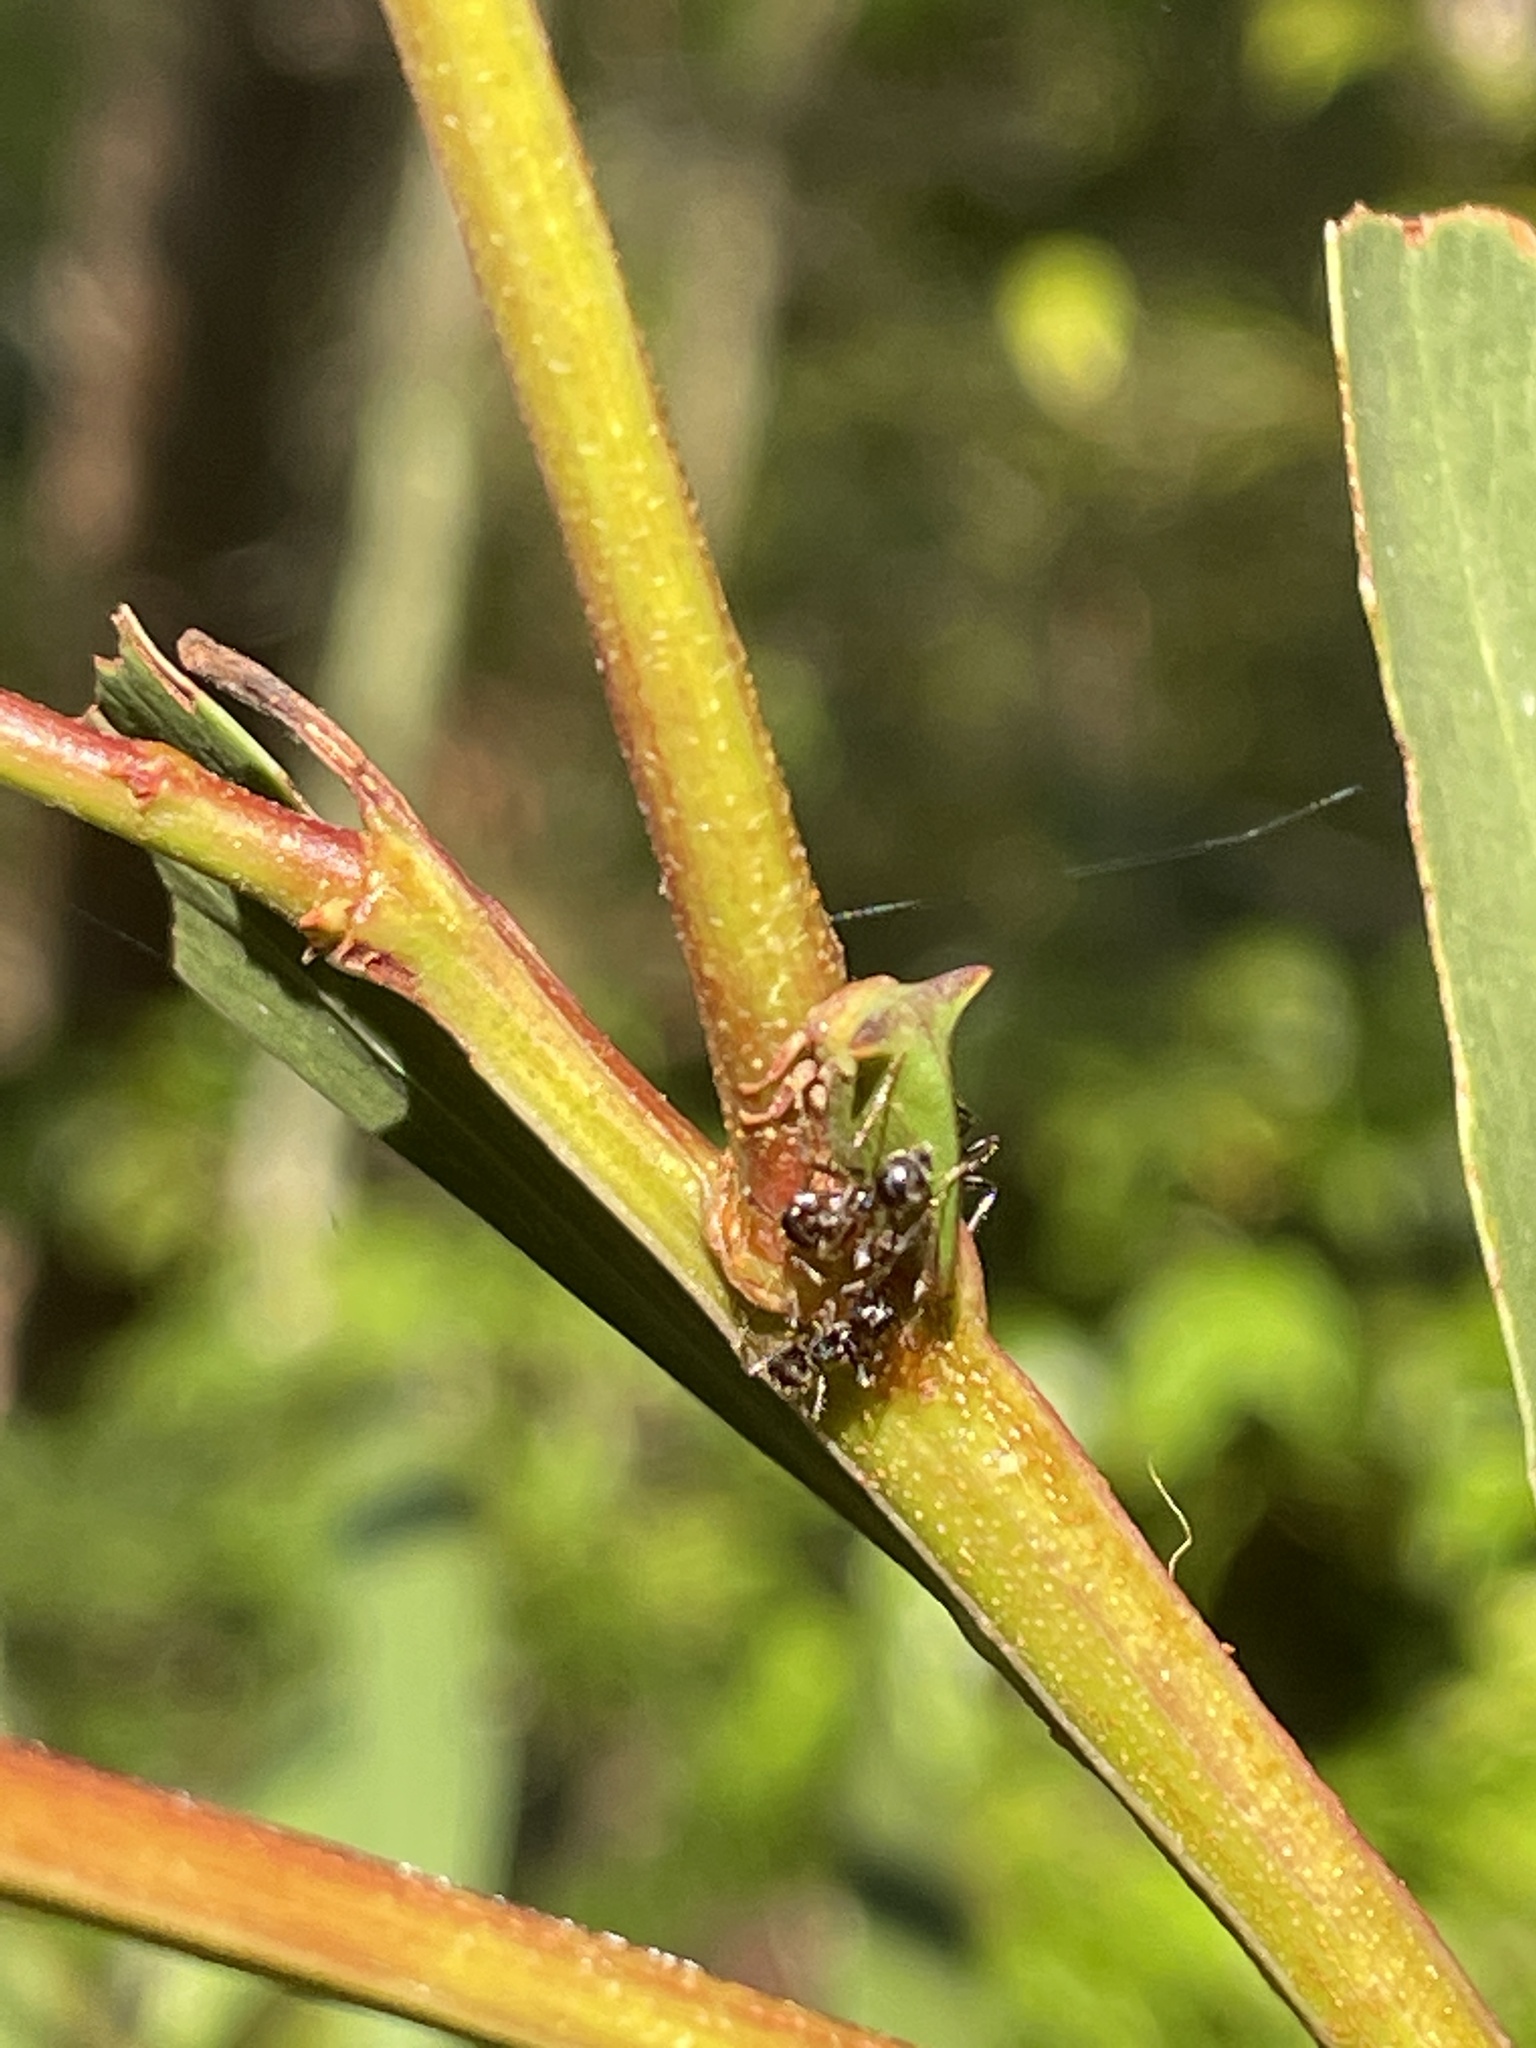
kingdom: Animalia
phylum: Arthropoda
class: Insecta
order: Hemiptera
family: Membracidae
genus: Sextius
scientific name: Sextius virescens
